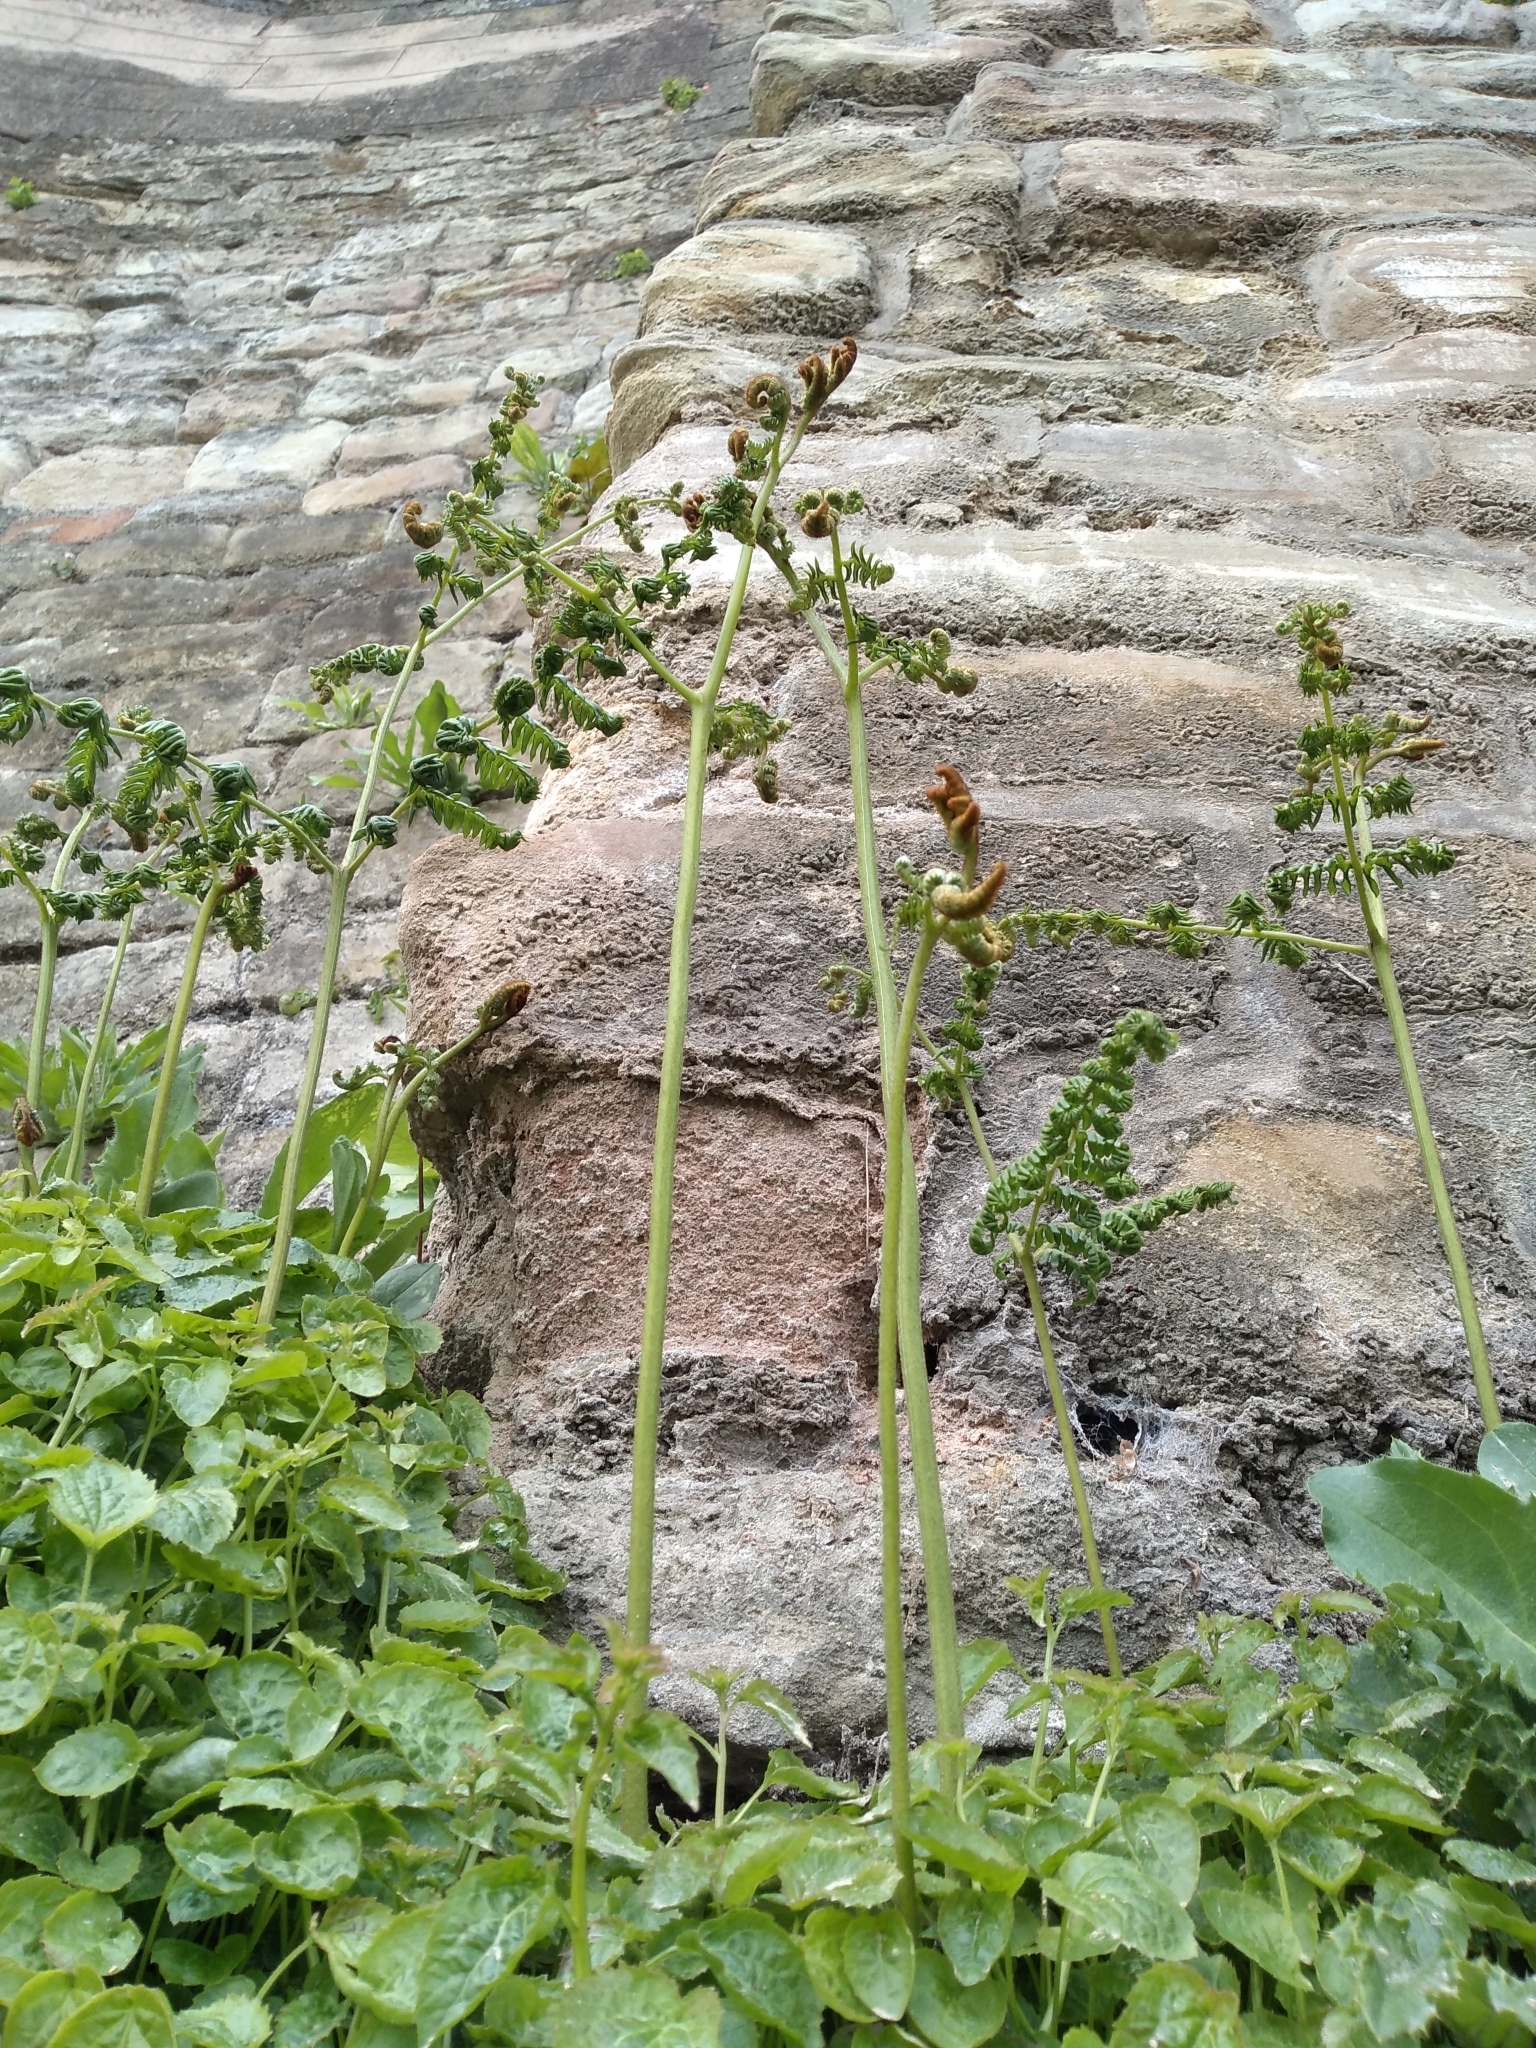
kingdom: Plantae
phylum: Tracheophyta
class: Polypodiopsida
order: Polypodiales
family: Dennstaedtiaceae
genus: Pteridium
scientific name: Pteridium aquilinum
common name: Bracken
